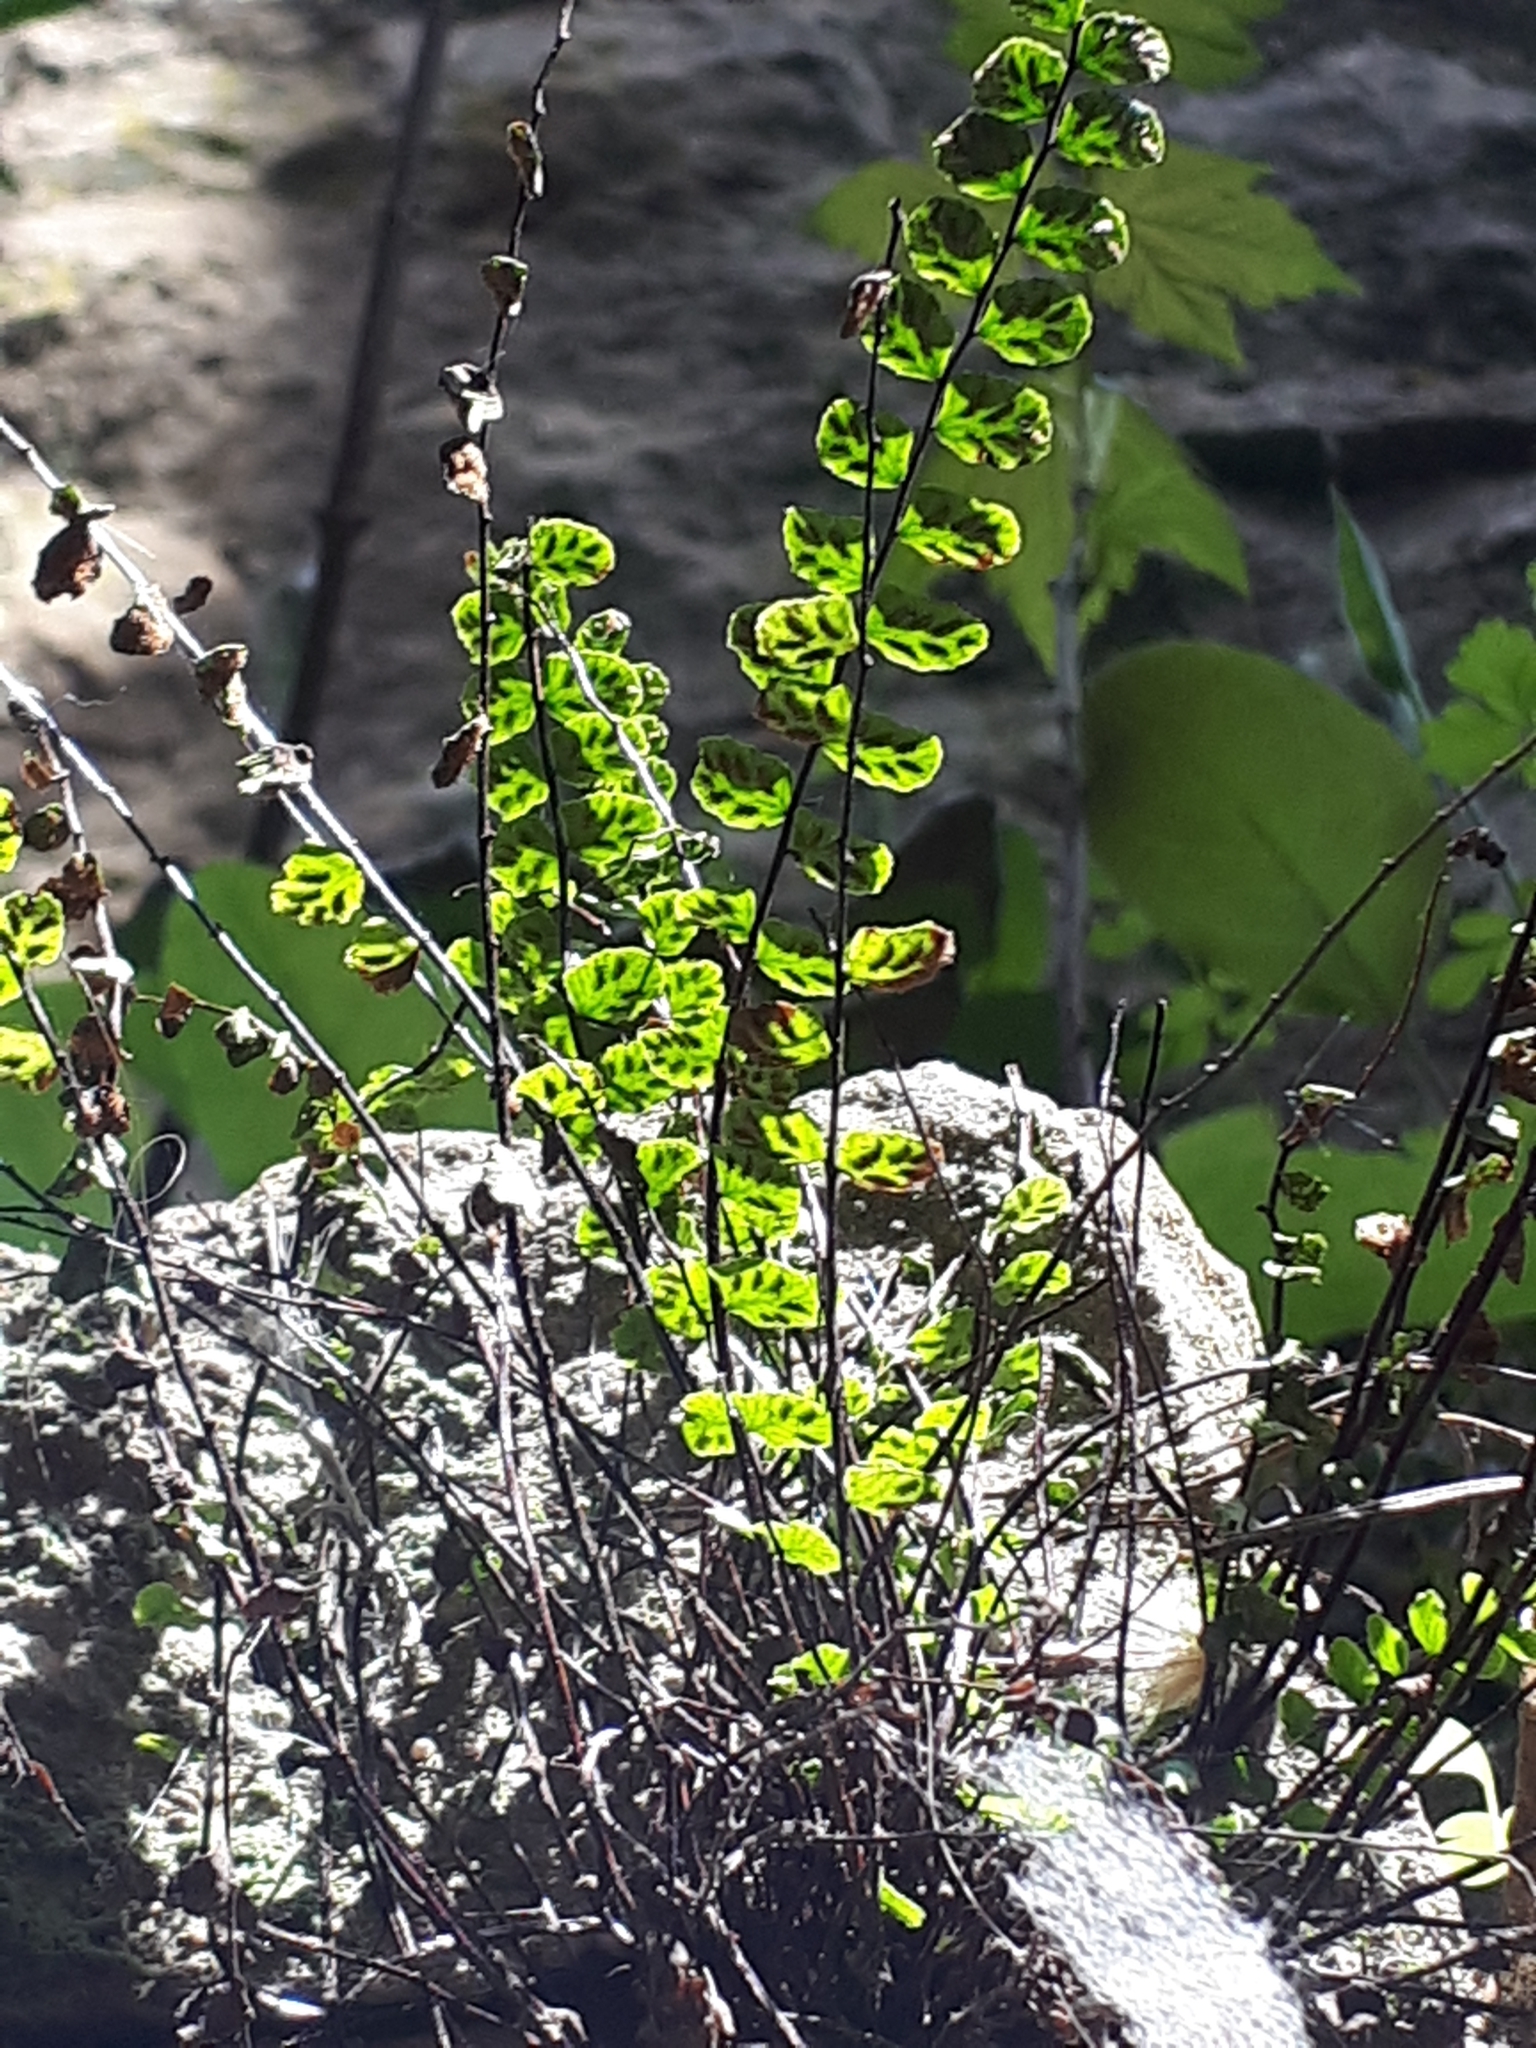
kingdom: Plantae
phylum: Tracheophyta
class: Polypodiopsida
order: Polypodiales
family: Aspleniaceae
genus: Asplenium
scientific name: Asplenium trichomanes
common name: Maidenhair spleenwort
